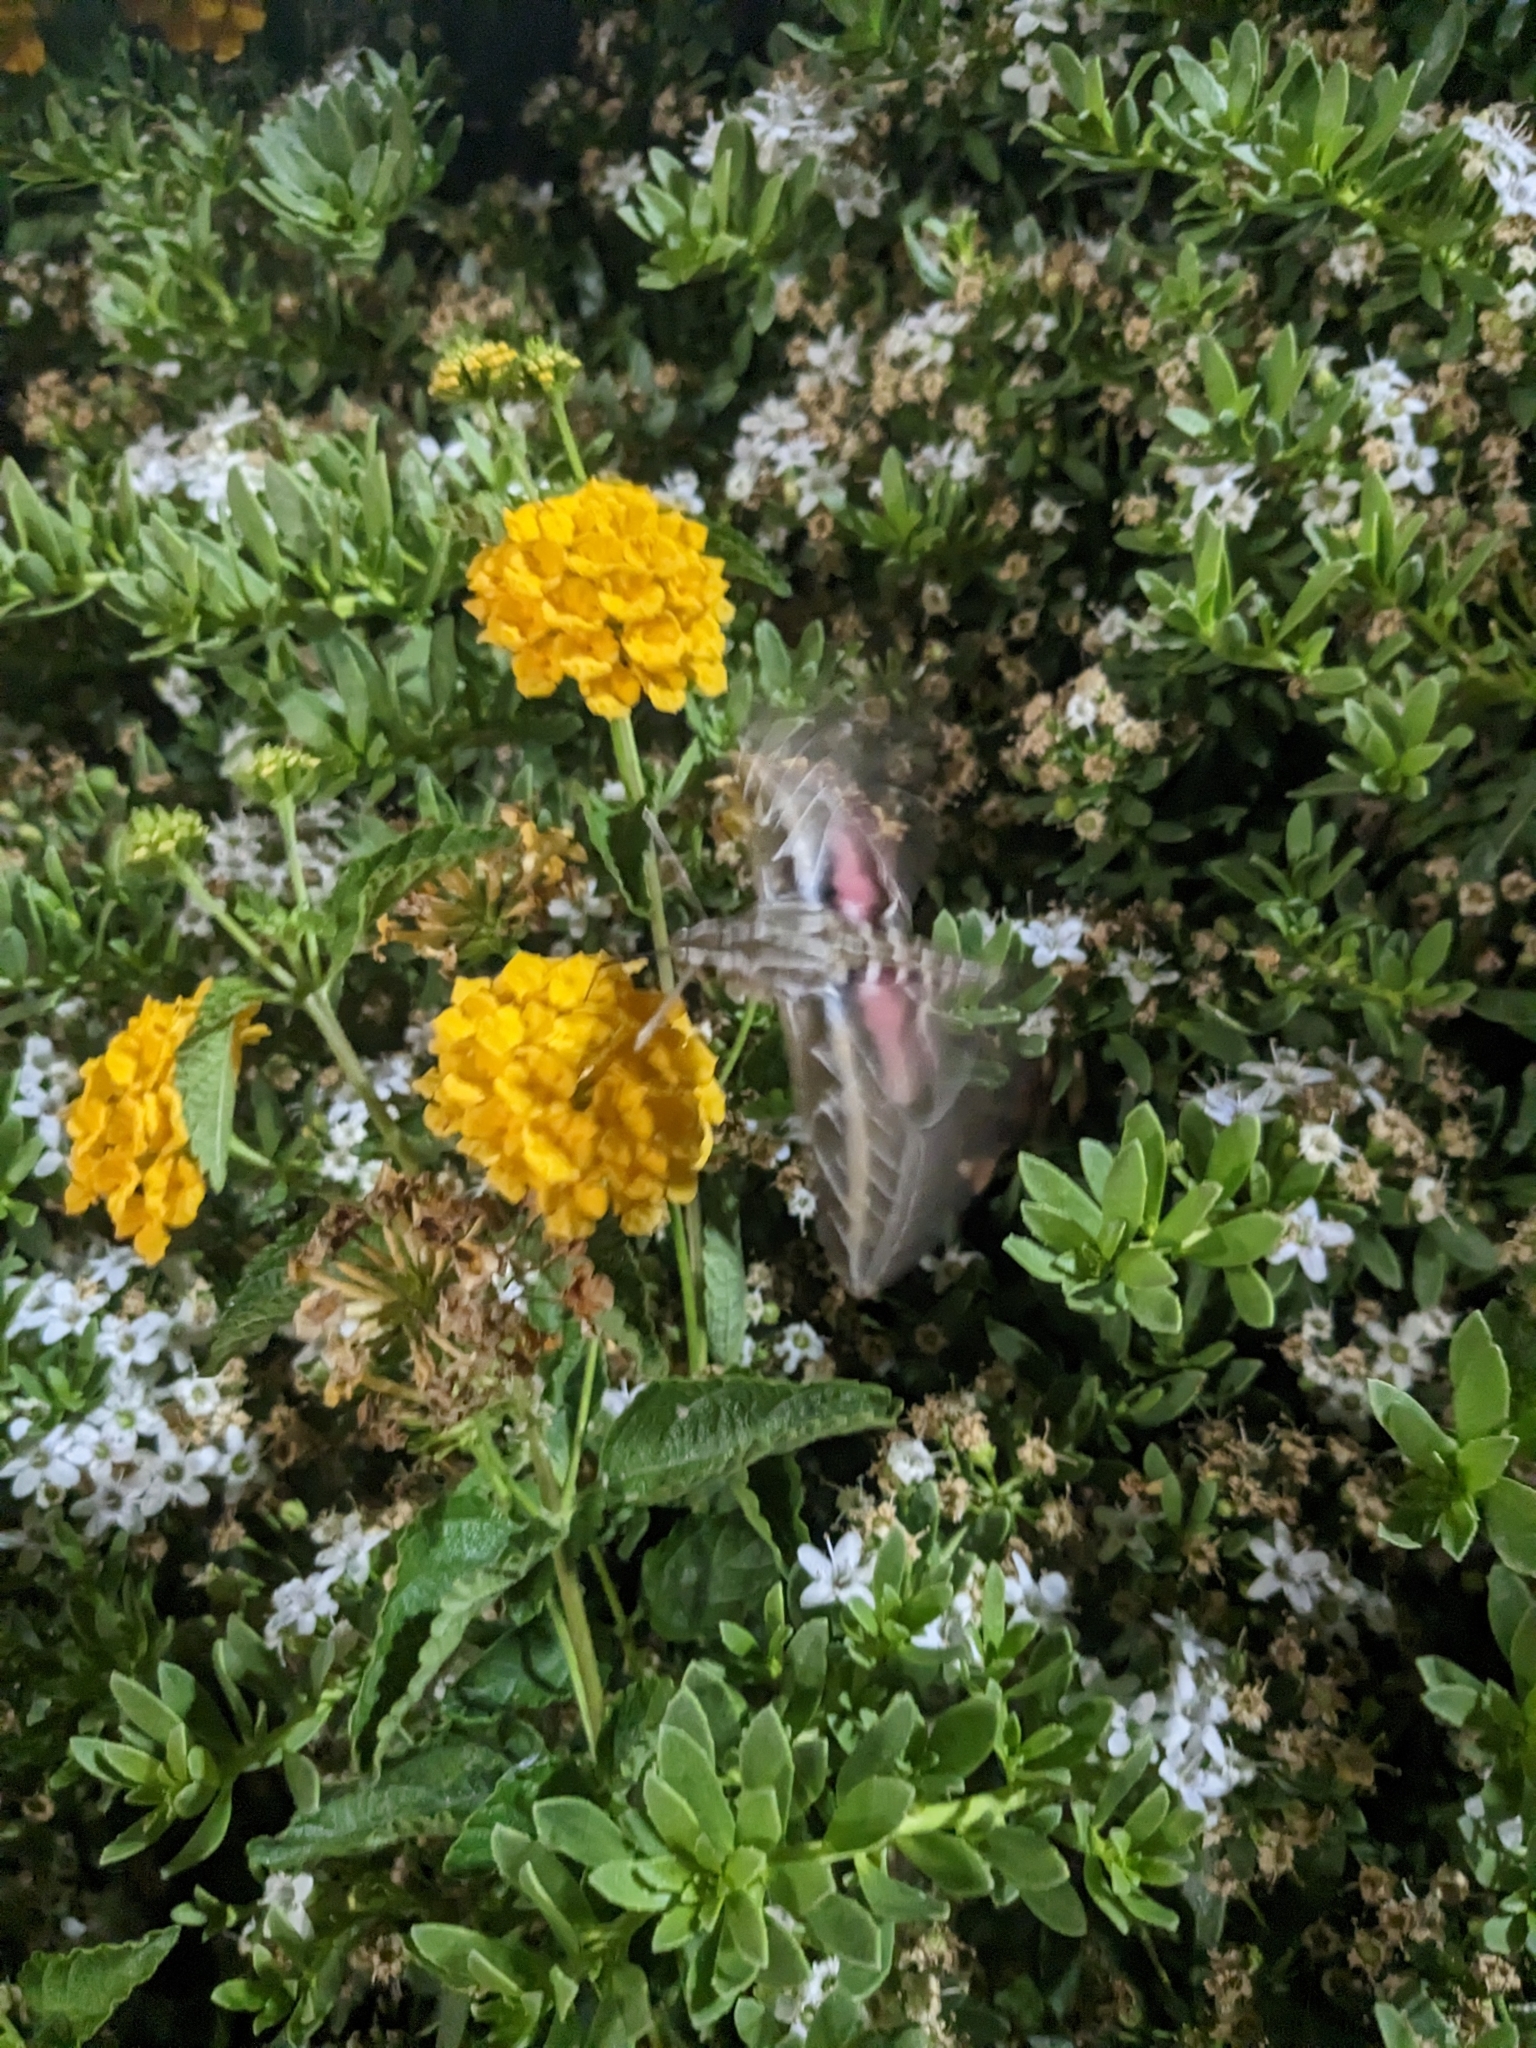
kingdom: Animalia
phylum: Arthropoda
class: Insecta
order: Lepidoptera
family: Sphingidae
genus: Hyles
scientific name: Hyles lineata
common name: White-lined sphinx
